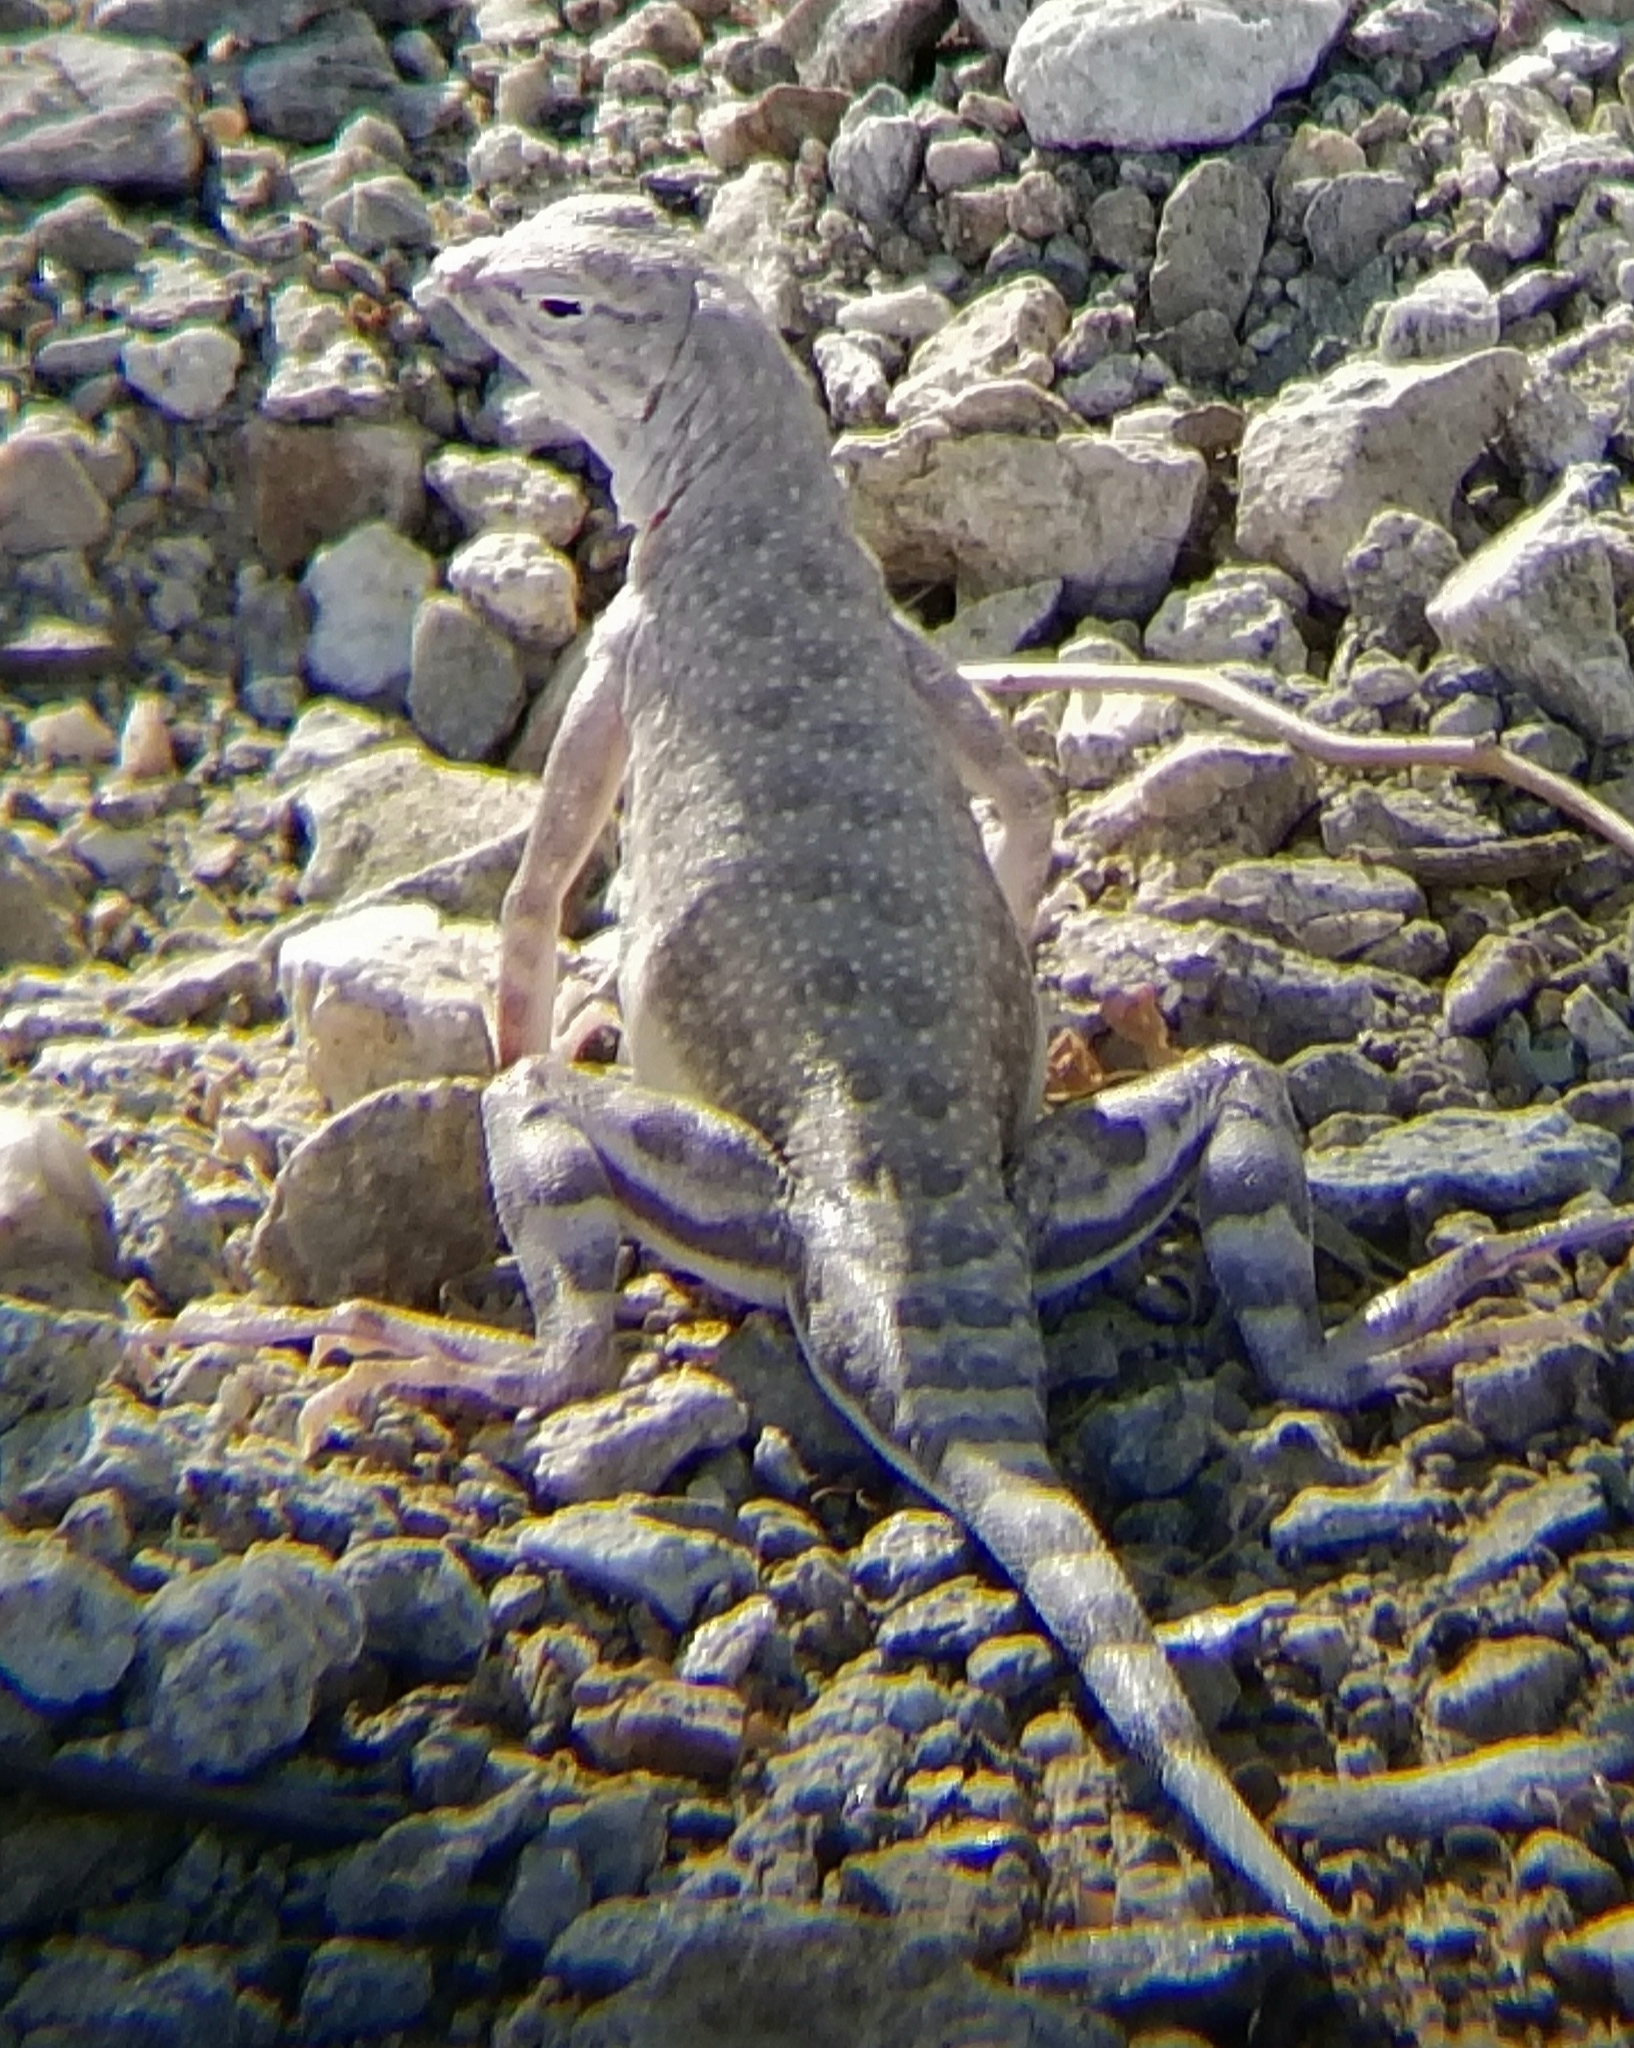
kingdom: Animalia
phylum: Chordata
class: Squamata
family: Phrynosomatidae
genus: Callisaurus
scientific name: Callisaurus draconoides
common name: Zebra-tailed lizard
